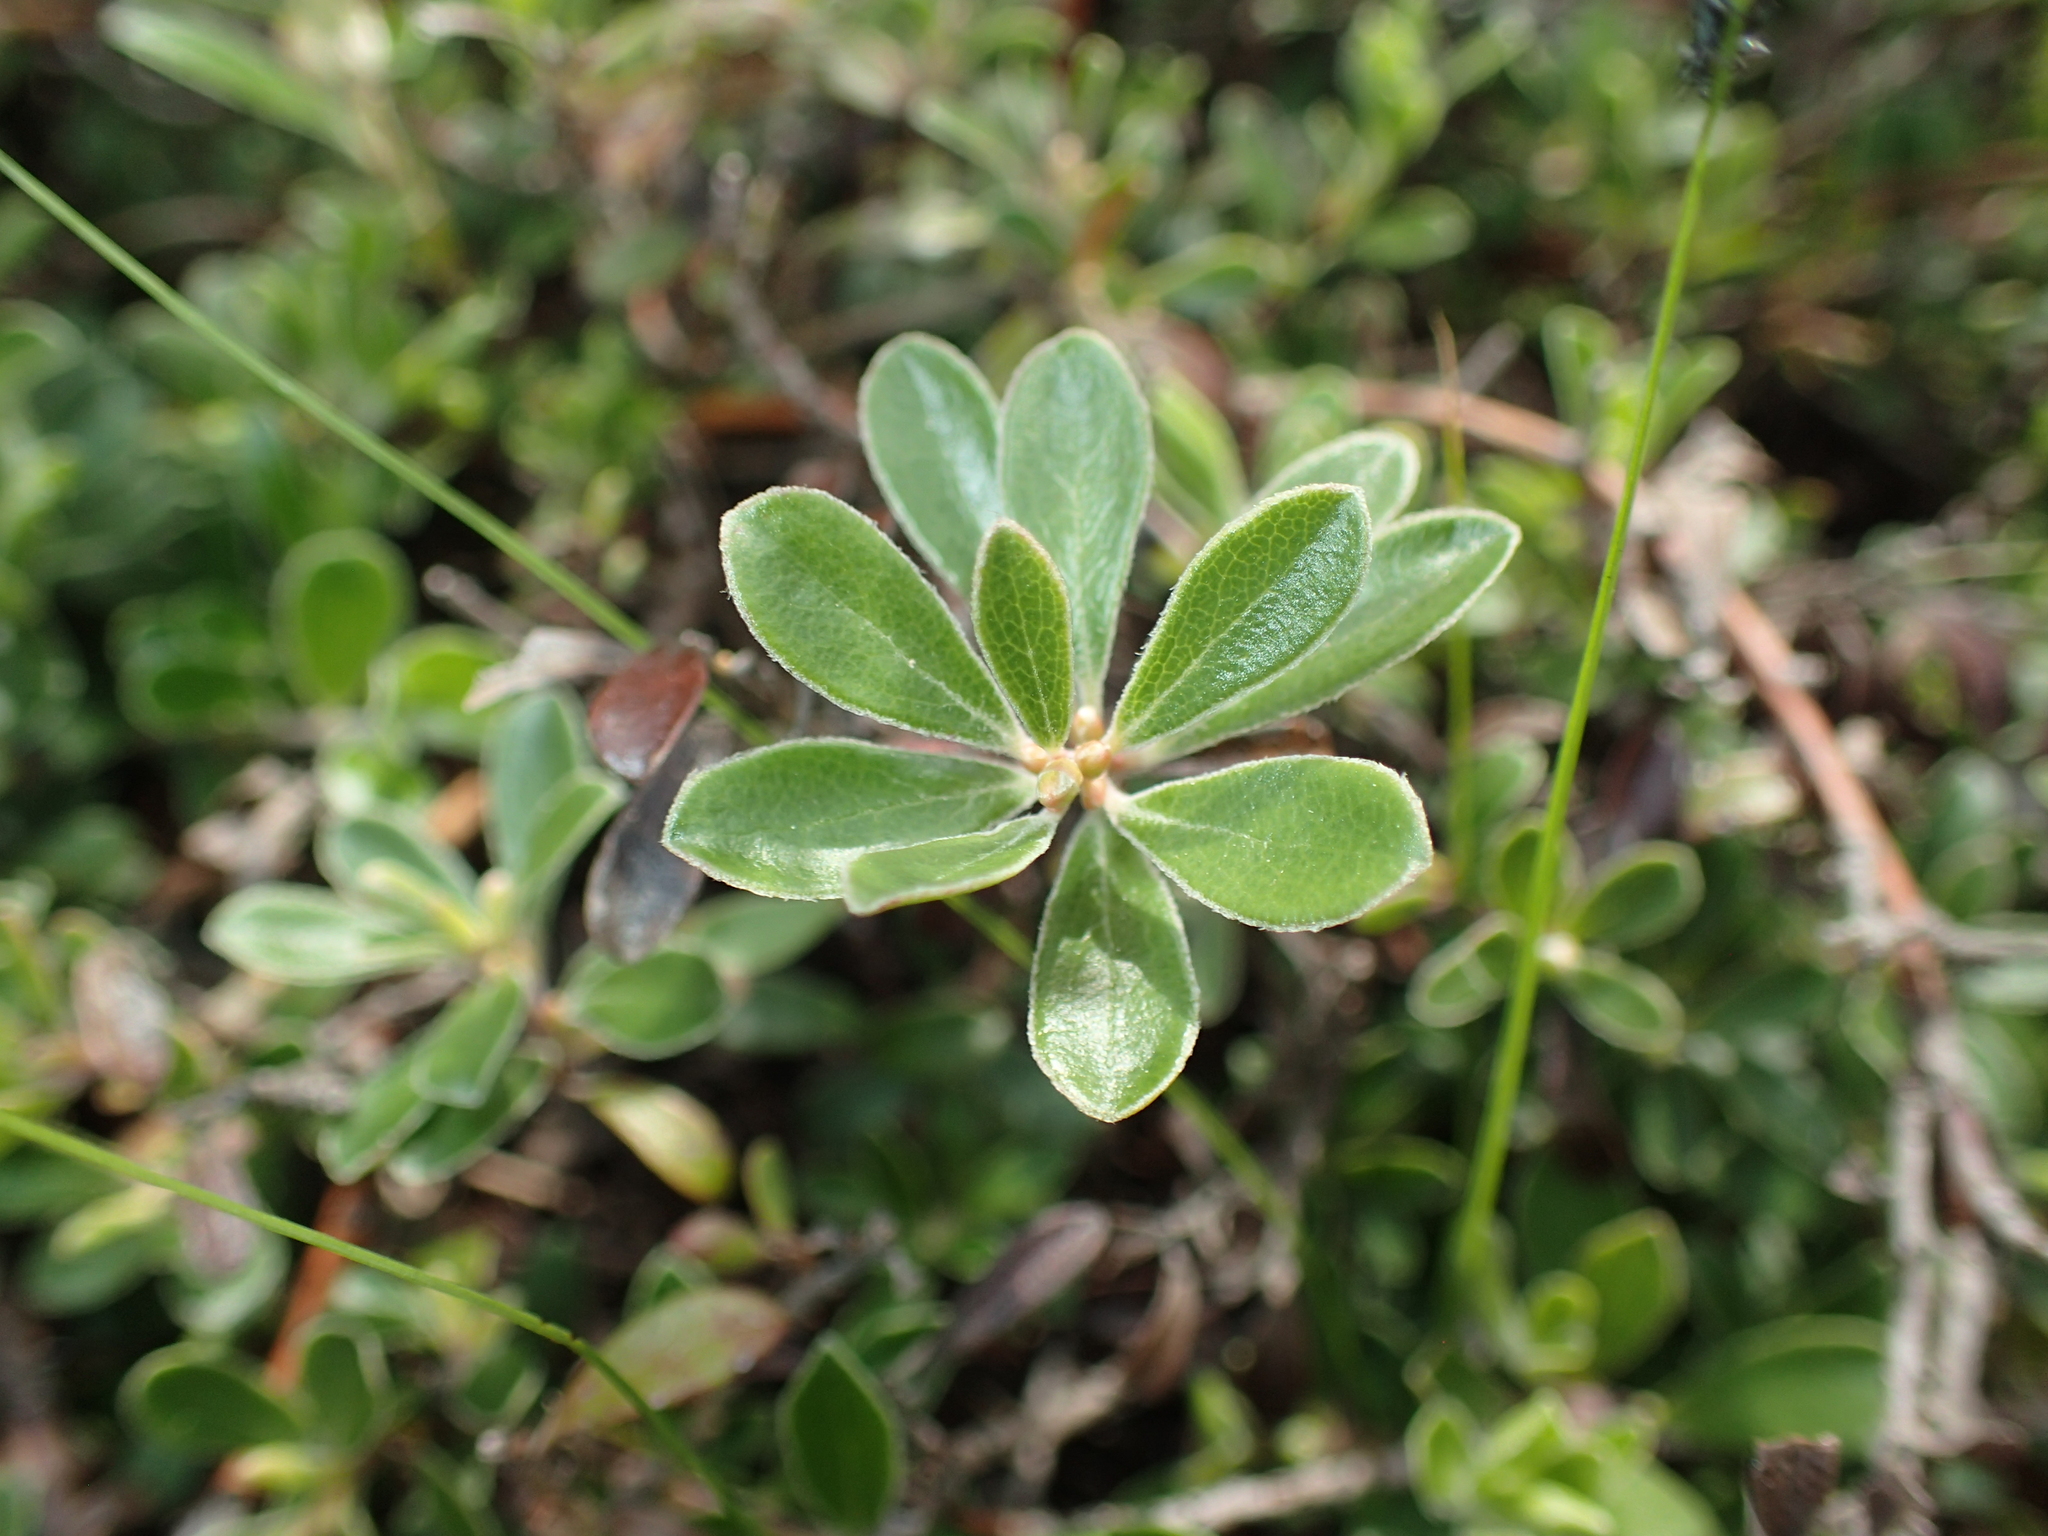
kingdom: Plantae
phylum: Tracheophyta
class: Magnoliopsida
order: Ericales
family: Ericaceae
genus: Arctostaphylos
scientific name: Arctostaphylos uva-ursi
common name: Bearberry
